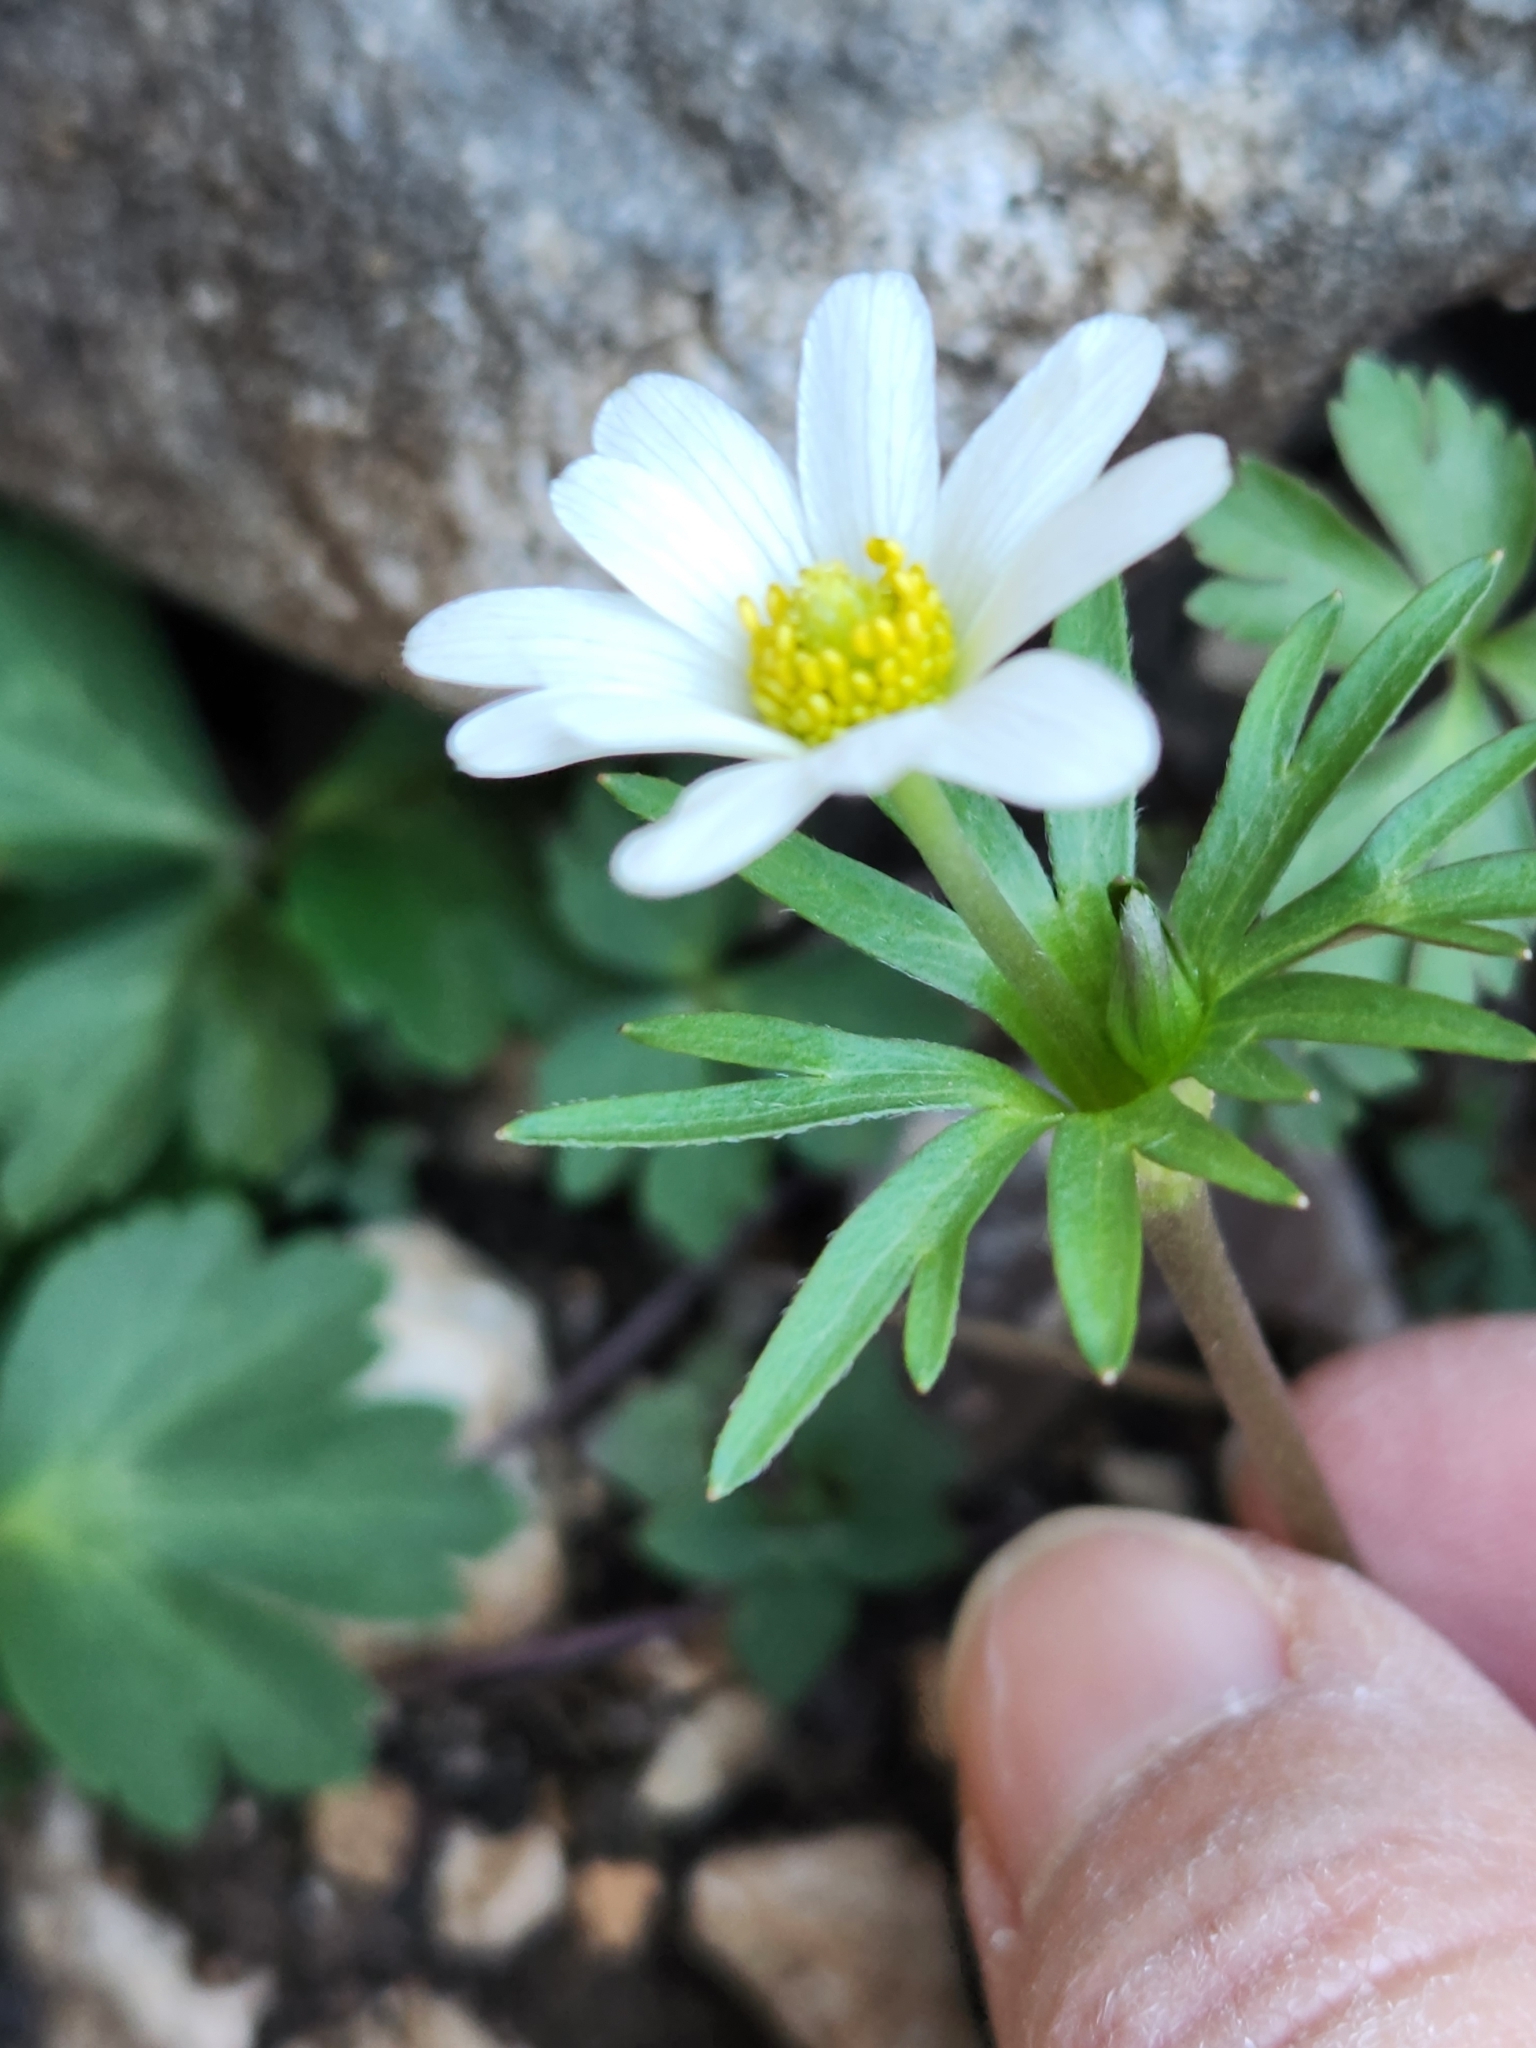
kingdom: Plantae
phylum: Tracheophyta
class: Magnoliopsida
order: Ranunculales
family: Ranunculaceae
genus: Anemone
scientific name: Anemone edwardsiana
